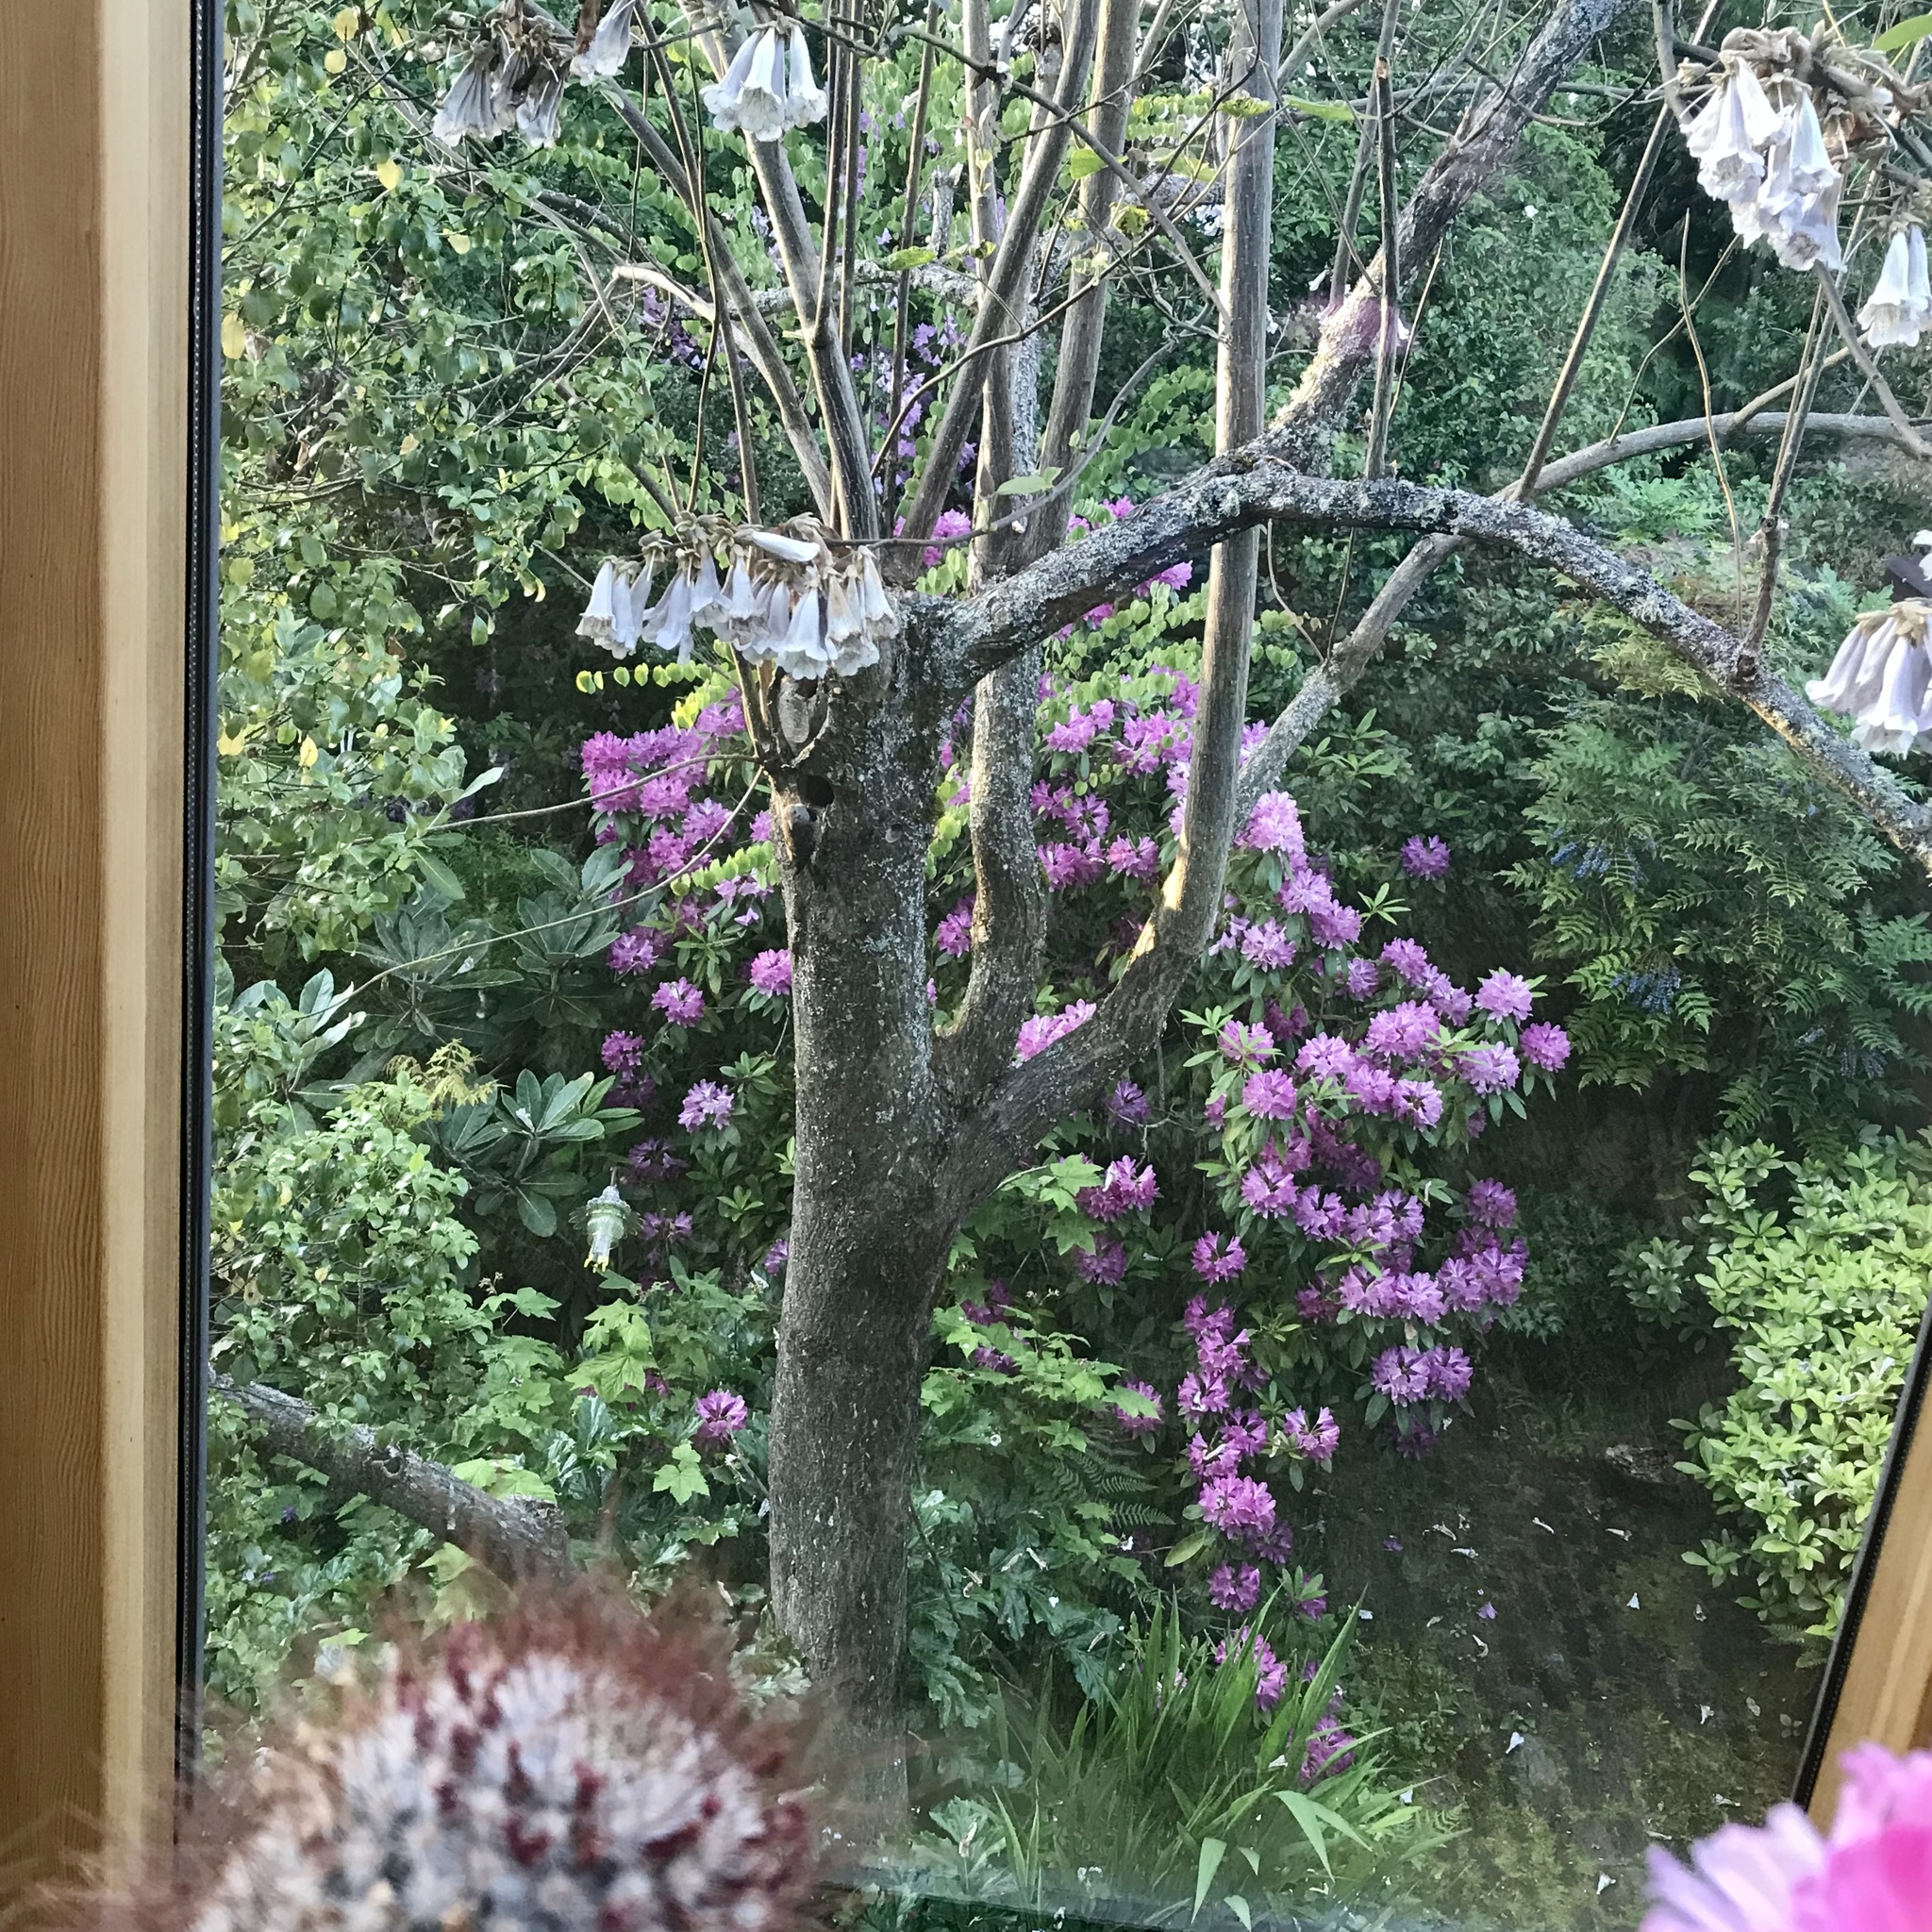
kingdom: Animalia
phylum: Chordata
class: Aves
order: Piciformes
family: Picidae
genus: Colaptes
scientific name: Colaptes auratus
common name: Northern flicker
